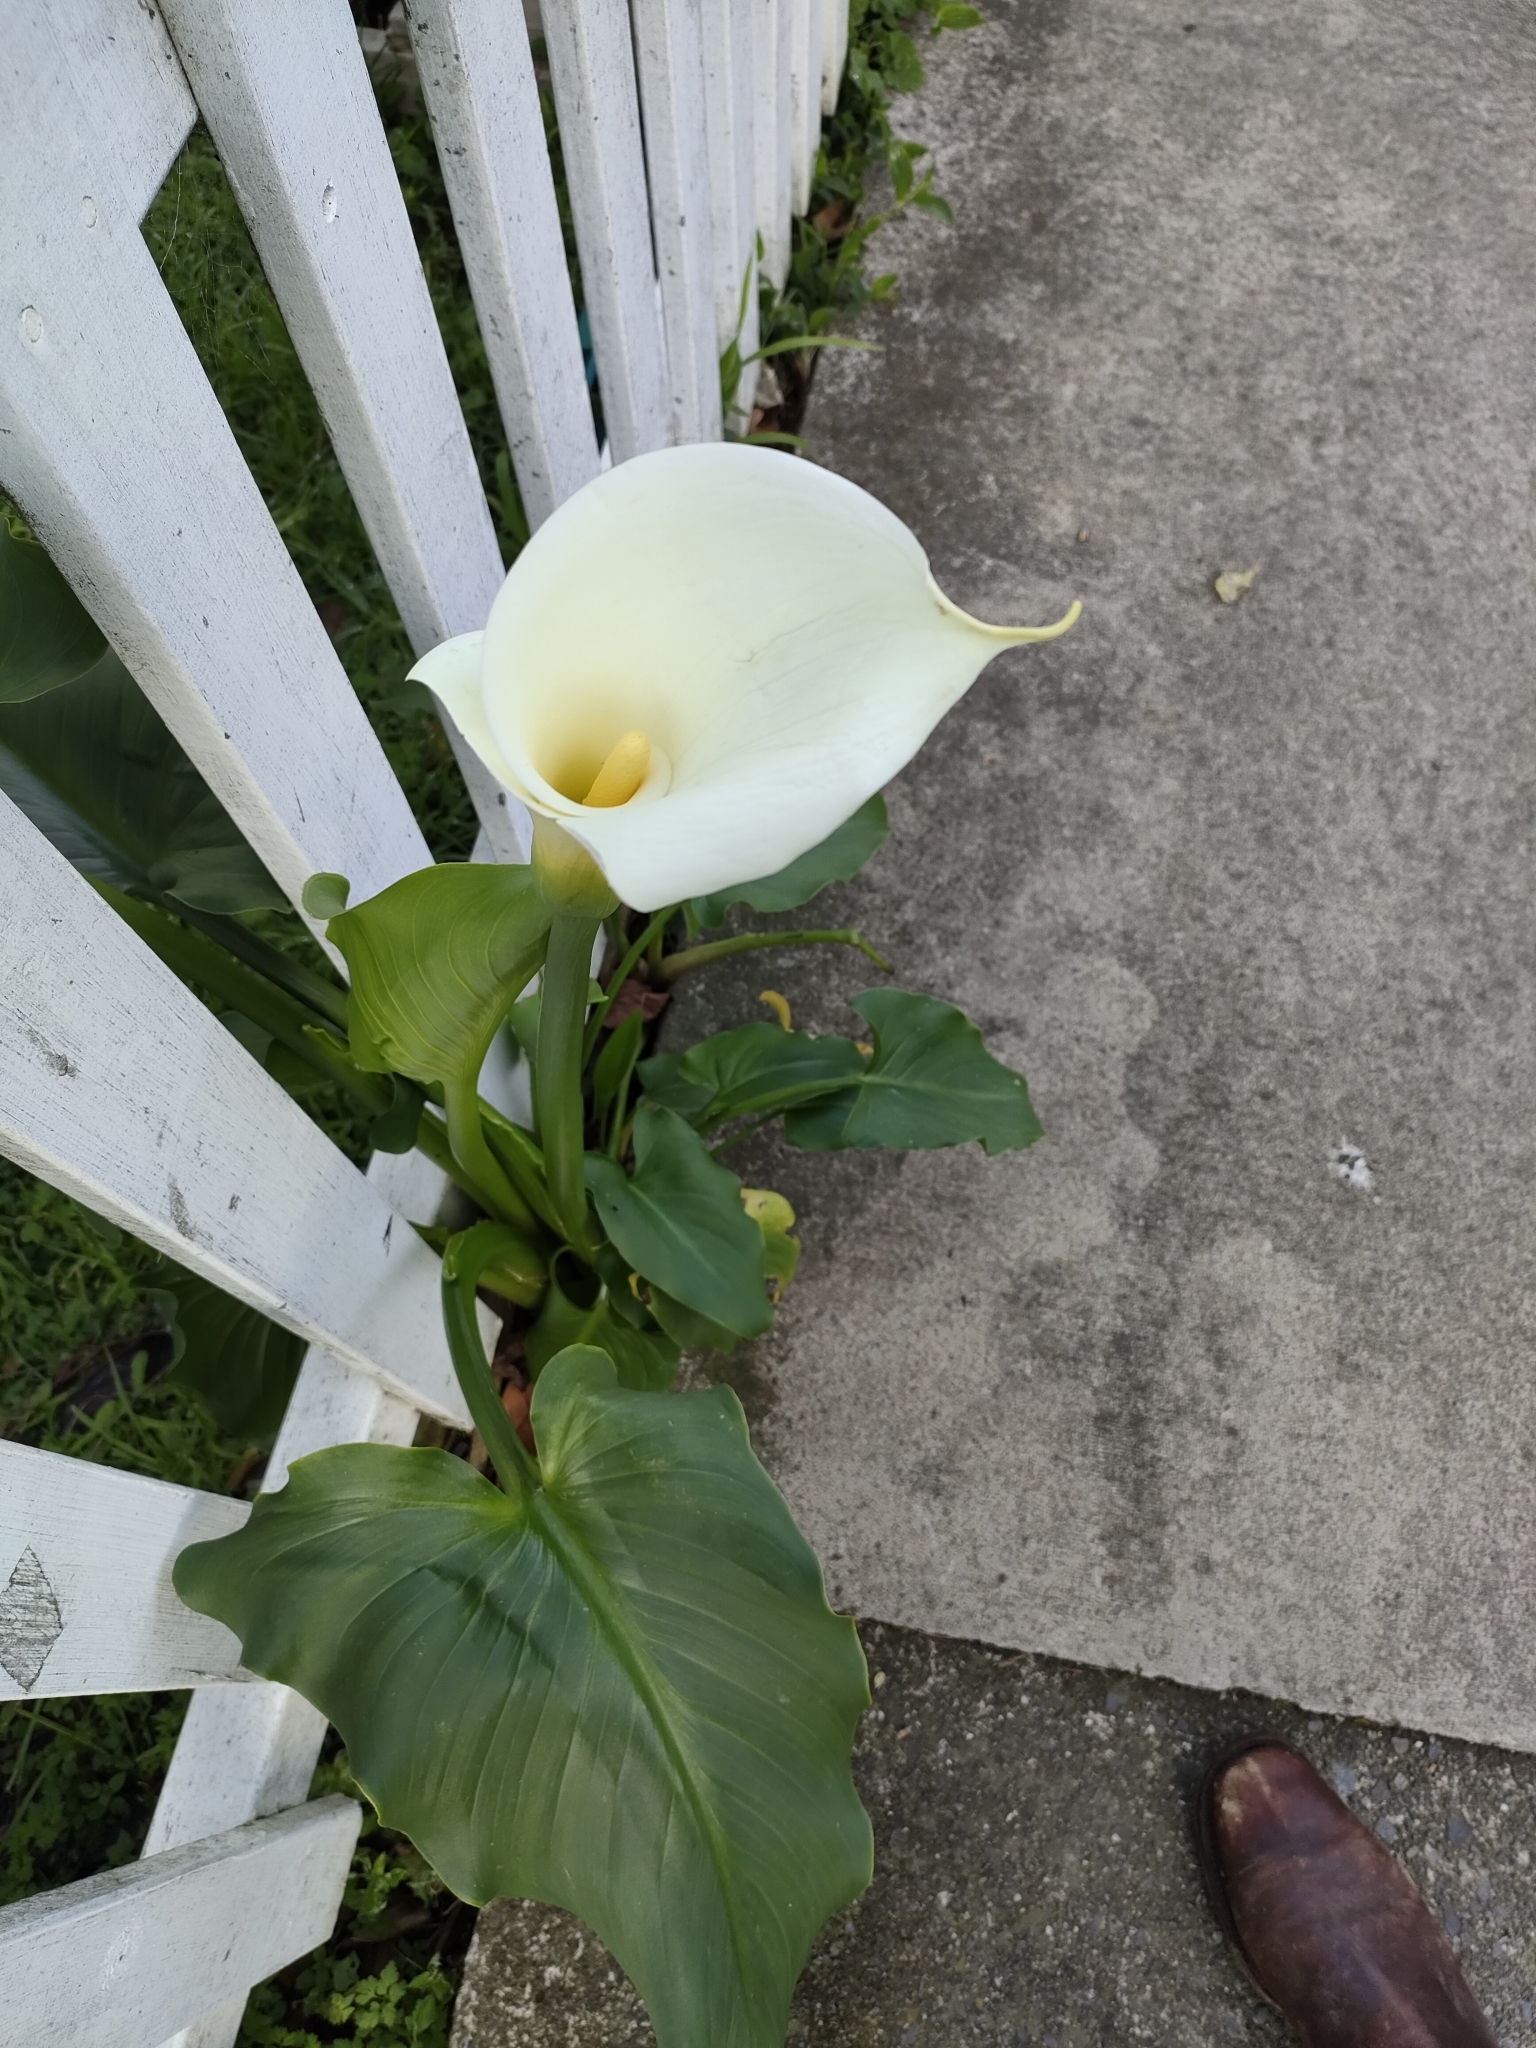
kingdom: Plantae
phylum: Tracheophyta
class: Liliopsida
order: Alismatales
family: Araceae
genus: Zantedeschia
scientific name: Zantedeschia aethiopica
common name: Altar-lily
